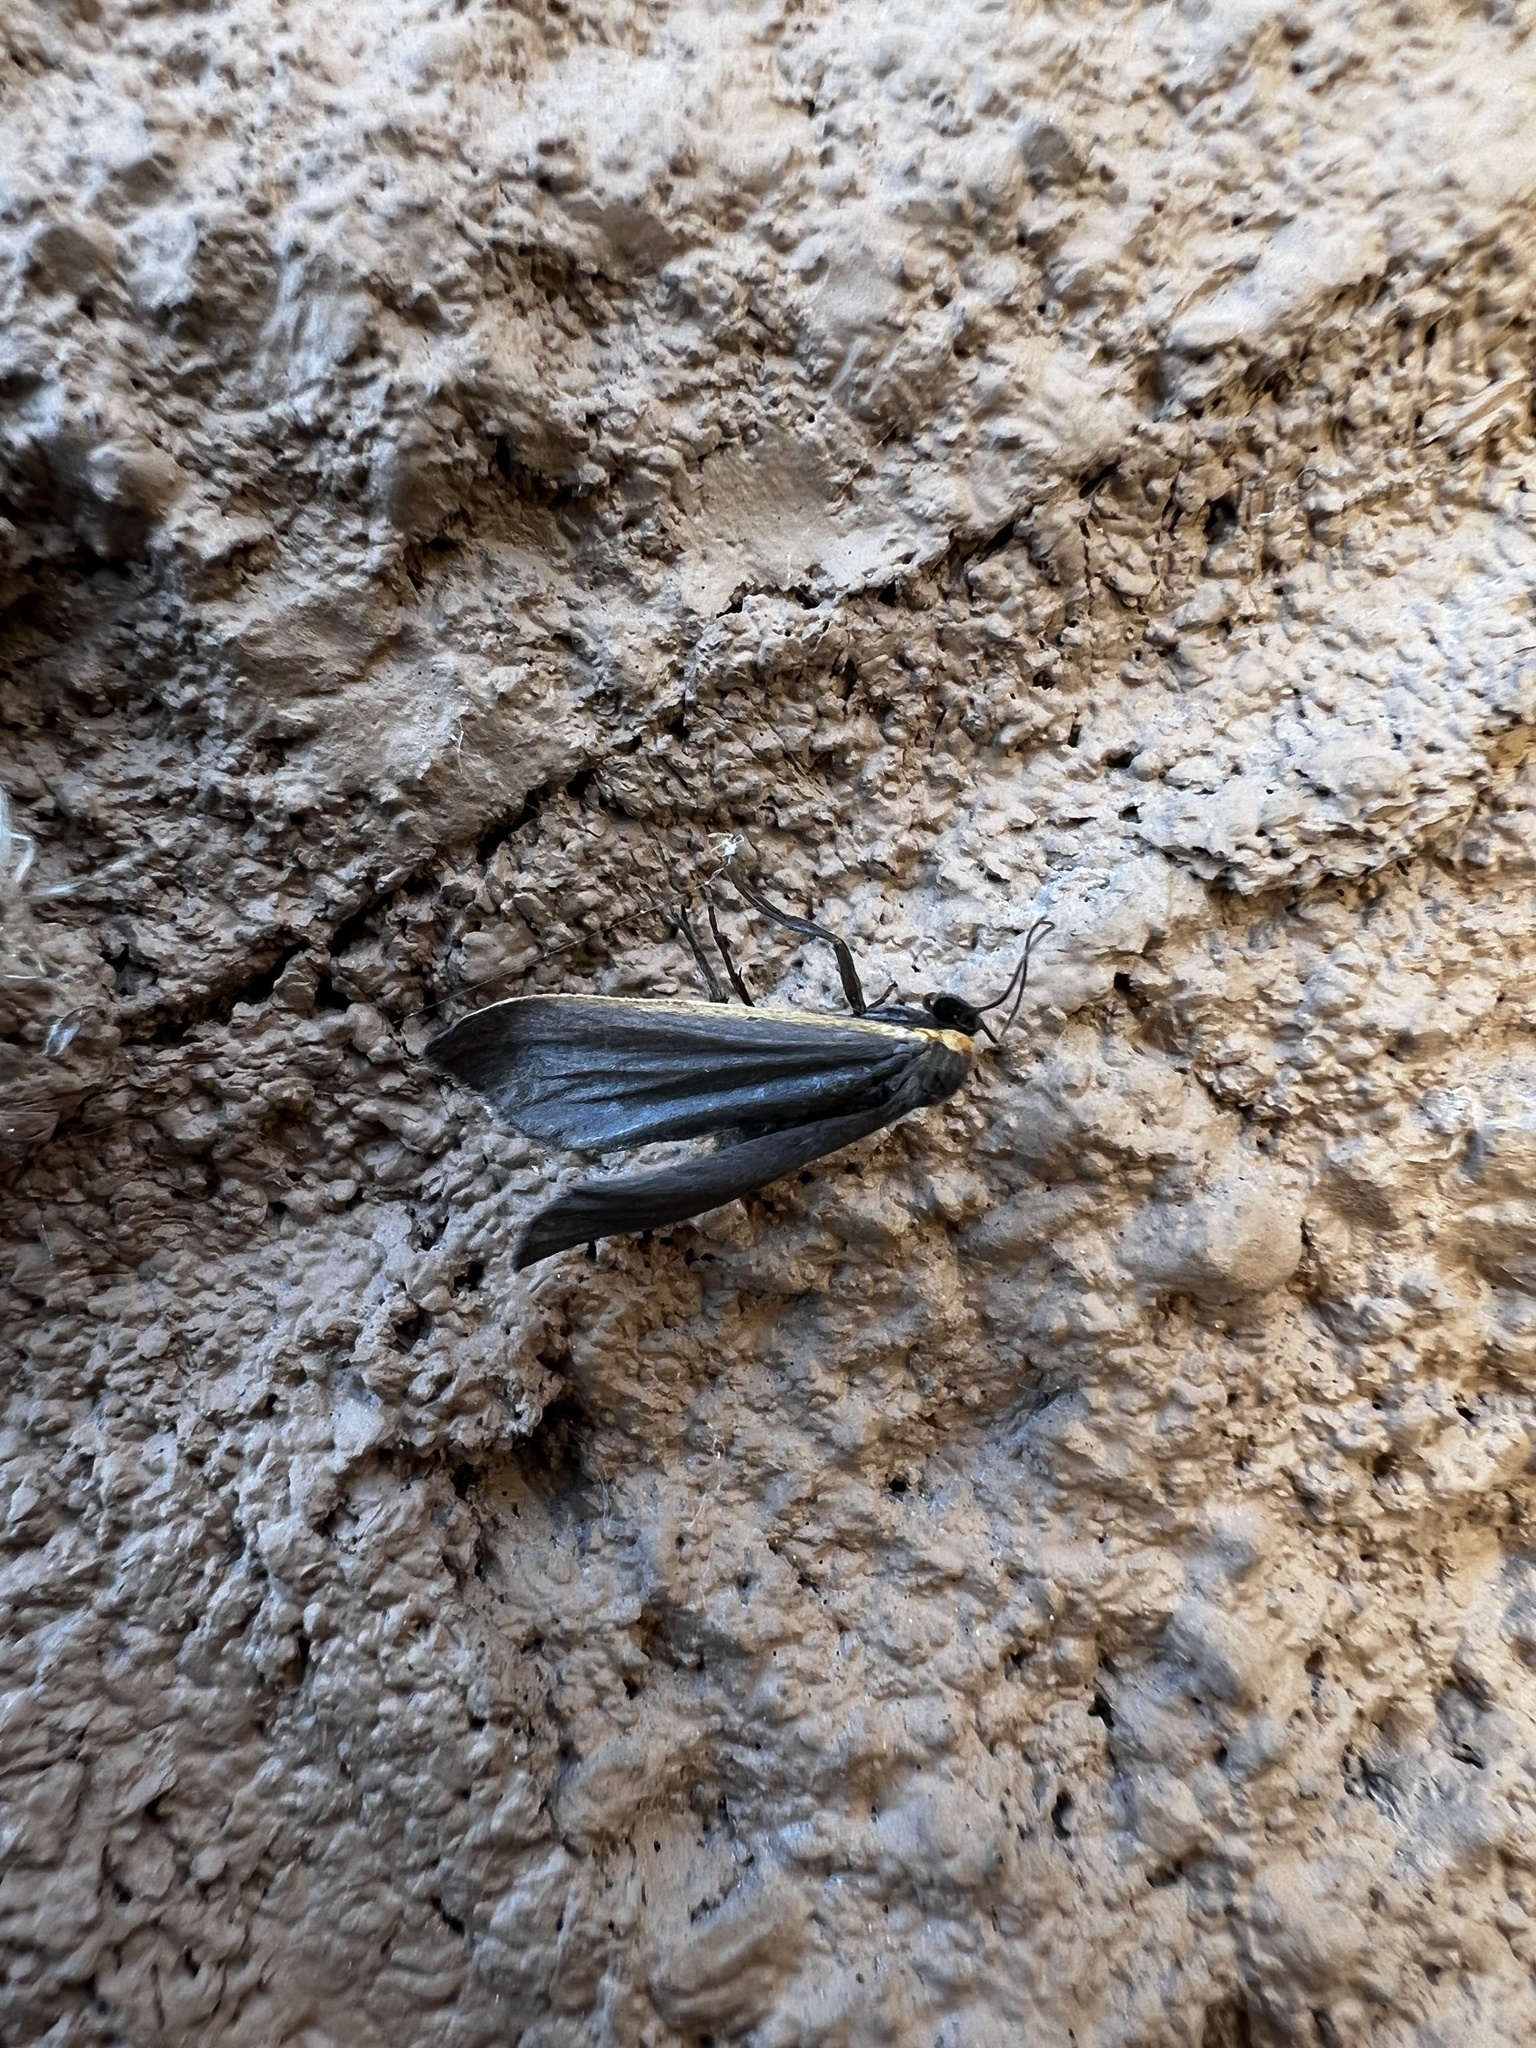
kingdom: Animalia
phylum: Arthropoda
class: Insecta
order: Lepidoptera
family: Erebidae
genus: Manulea
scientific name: Manulea bicolor
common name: Bicolored moth
